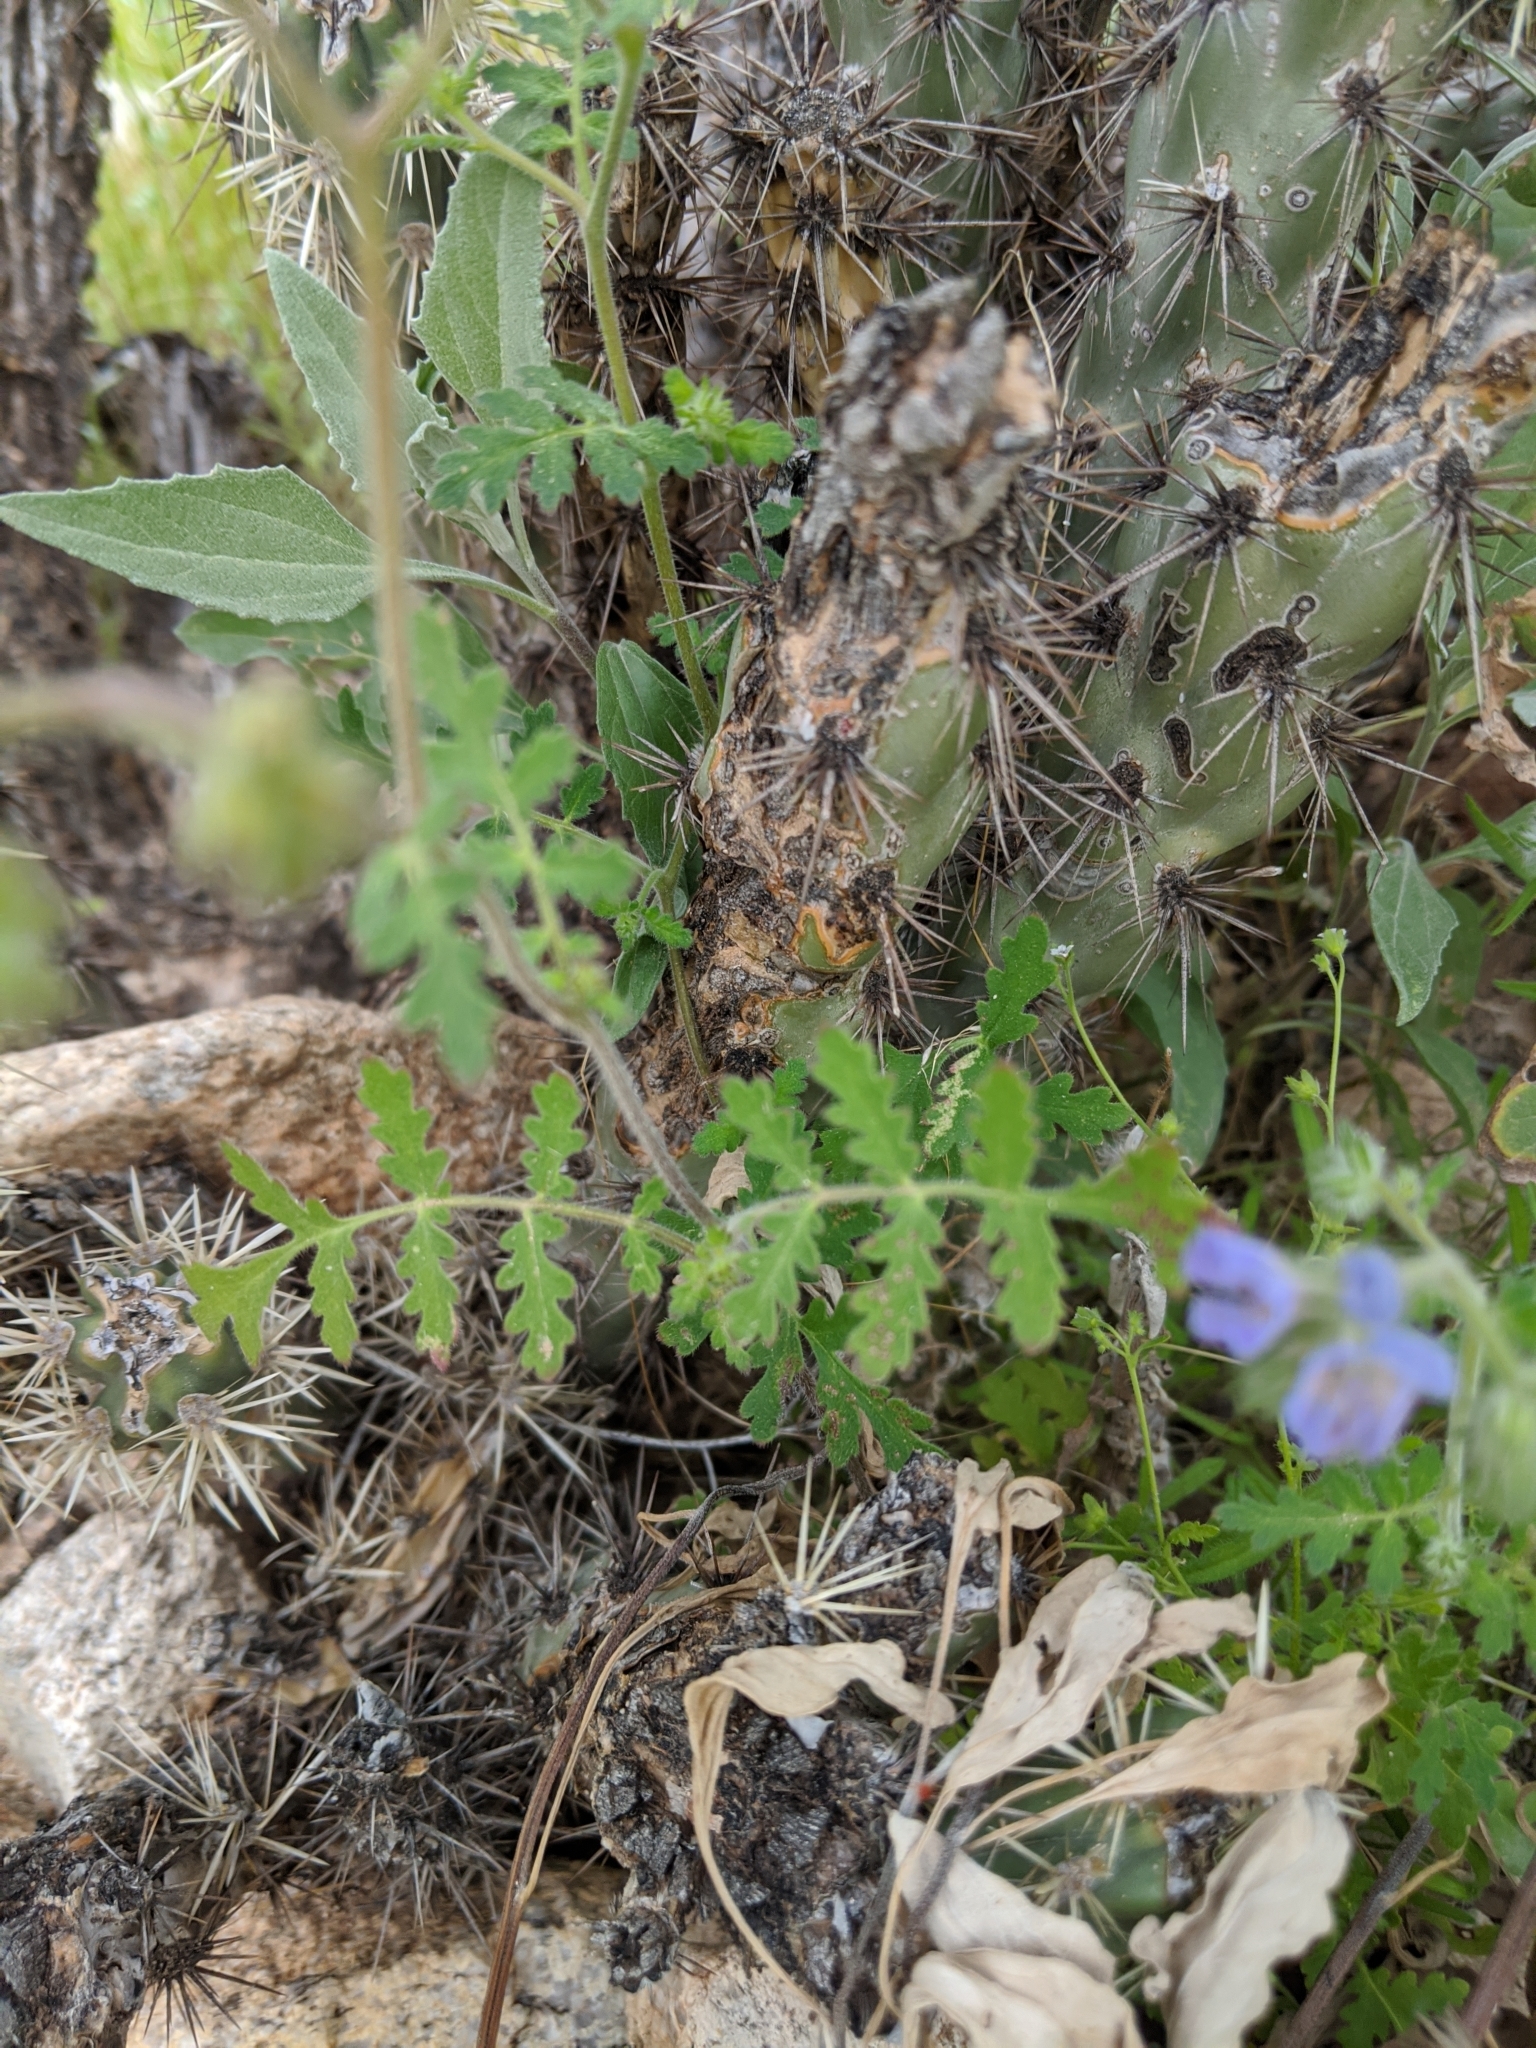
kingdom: Plantae
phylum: Tracheophyta
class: Magnoliopsida
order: Boraginales
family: Hydrophyllaceae
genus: Phacelia
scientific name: Phacelia distans
